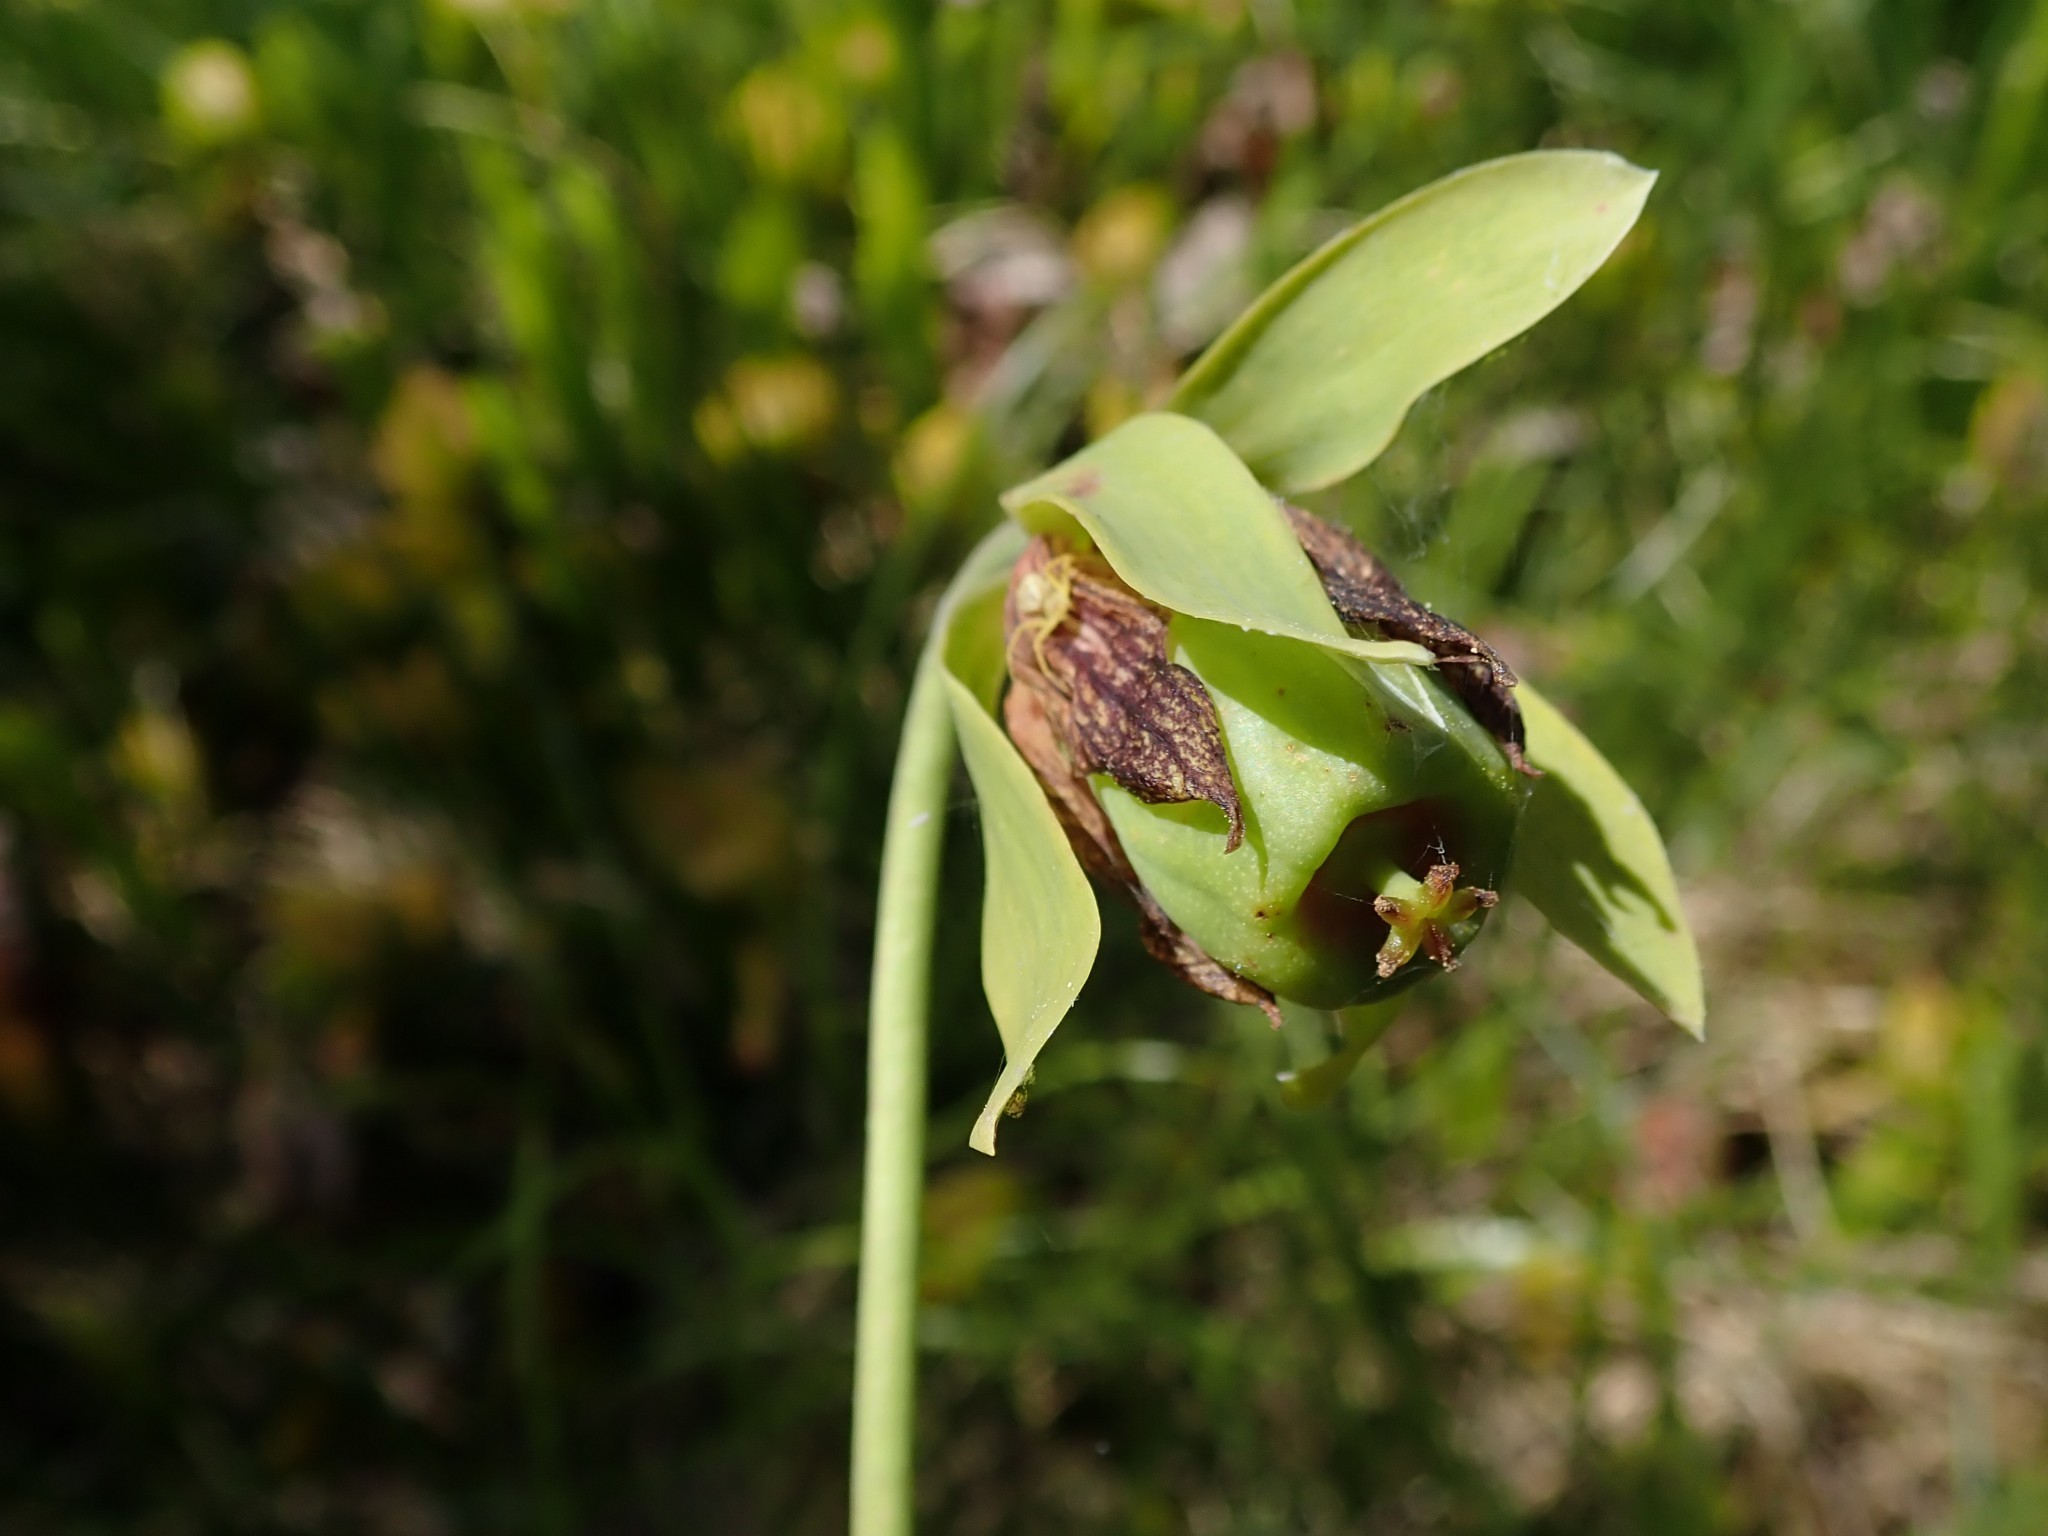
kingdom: Plantae
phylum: Tracheophyta
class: Magnoliopsida
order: Ericales
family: Sarraceniaceae
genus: Darlingtonia
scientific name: Darlingtonia californica
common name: California pitcher plant
